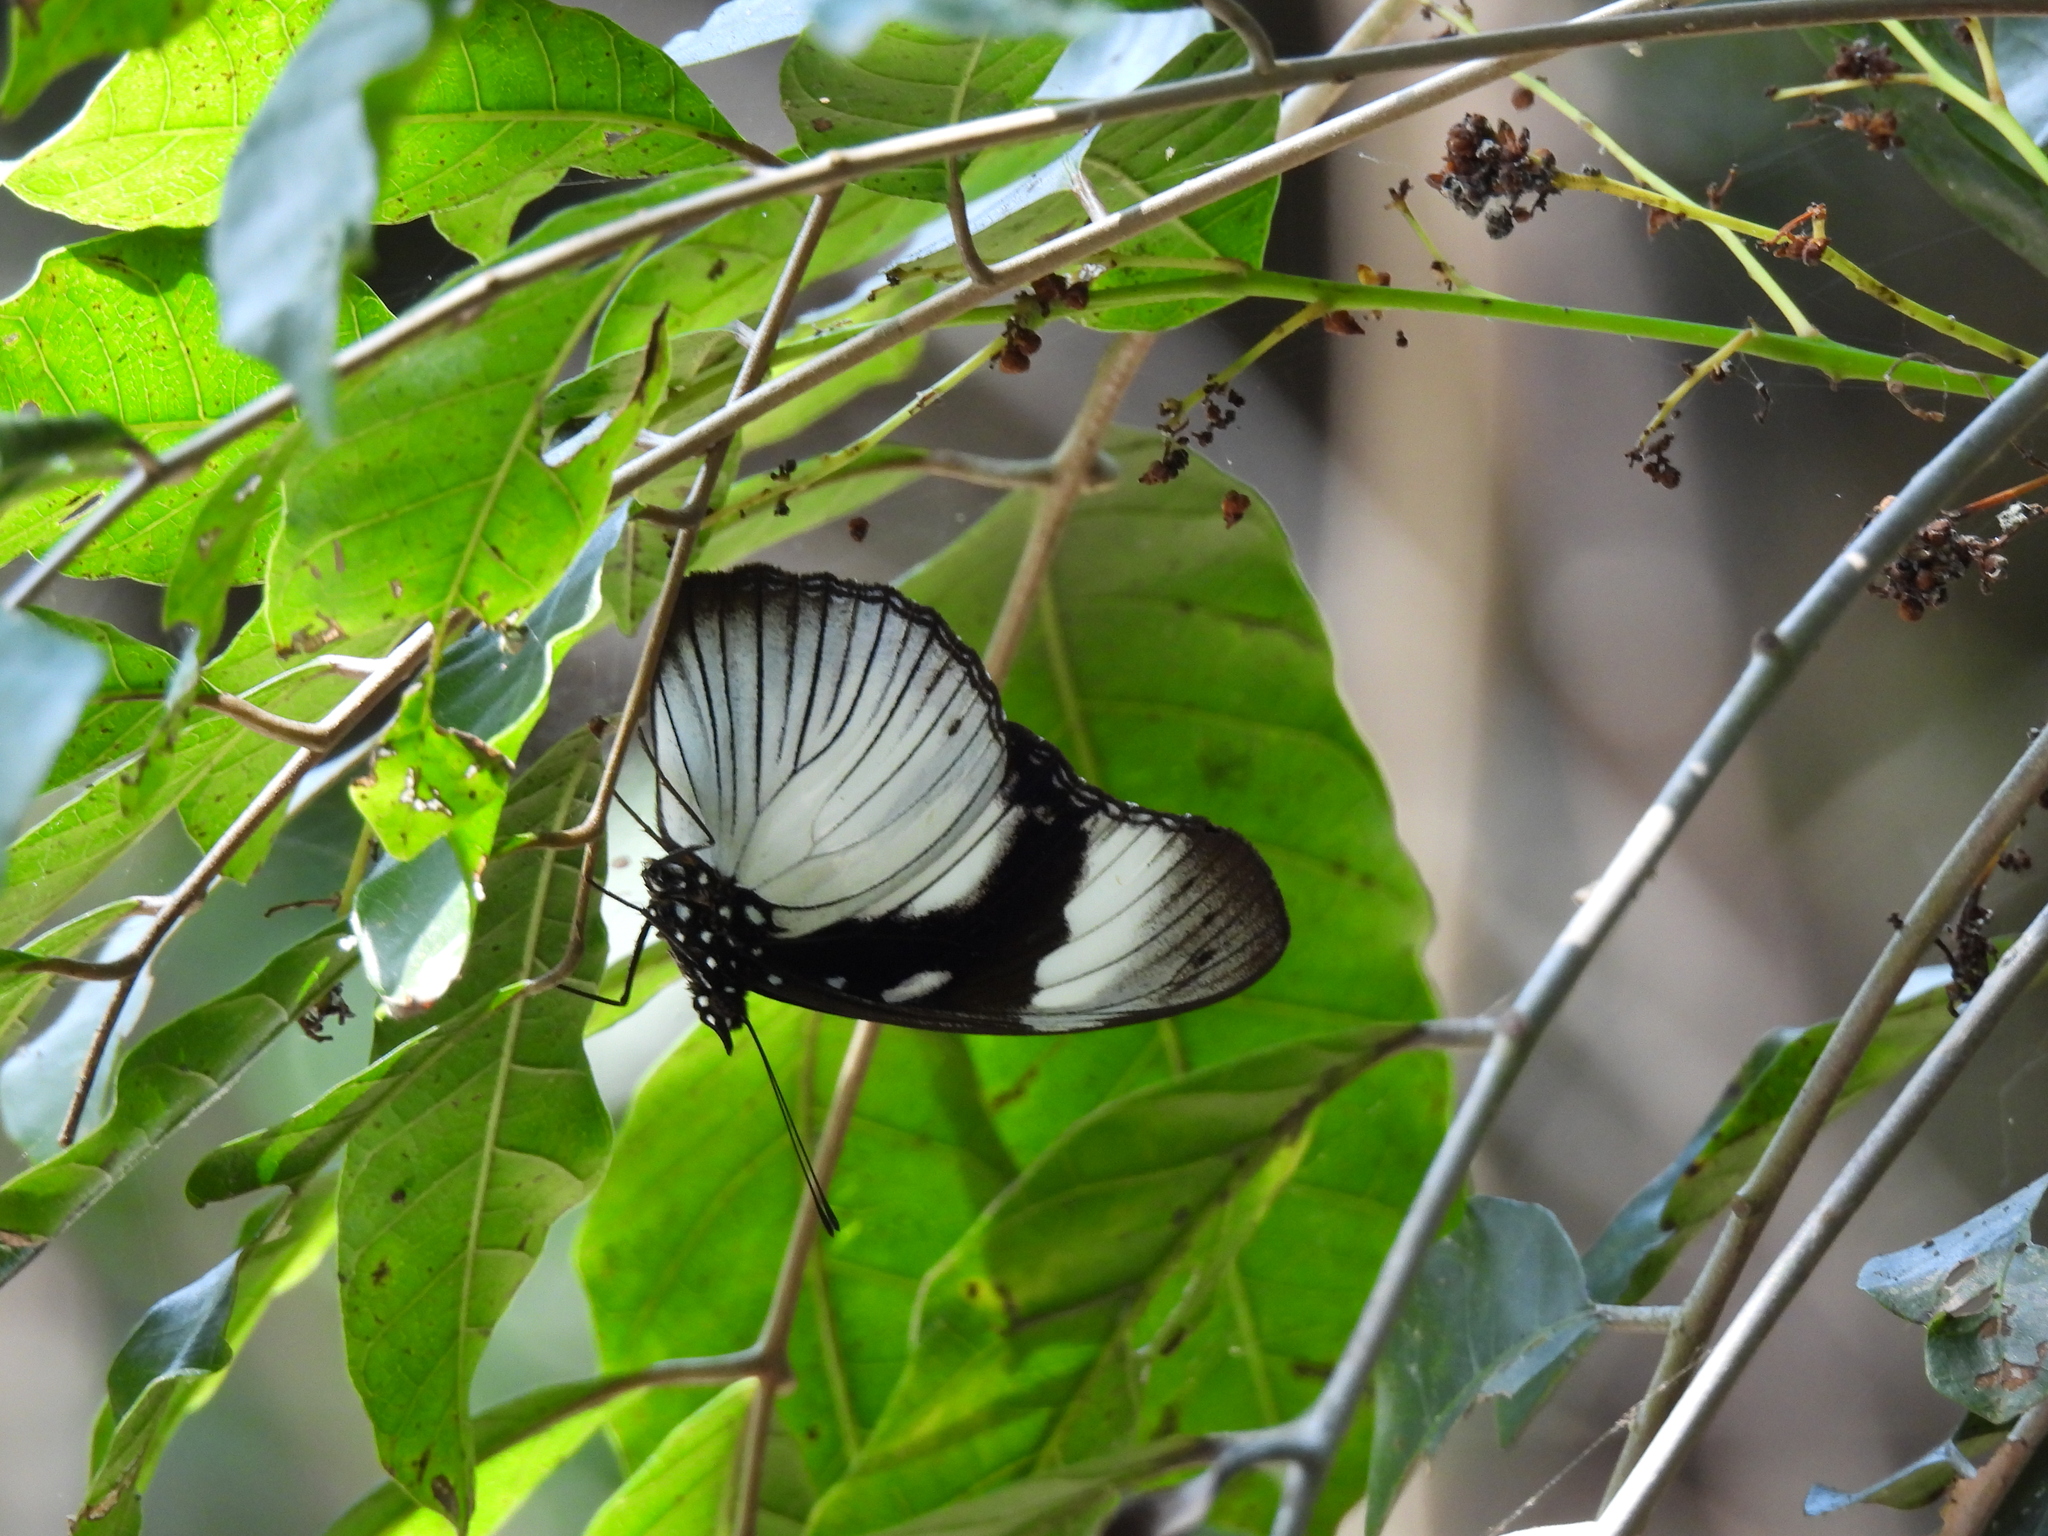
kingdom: Animalia
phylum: Arthropoda
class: Insecta
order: Lepidoptera
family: Nymphalidae
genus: Hypolimnas
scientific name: Hypolimnas dubius
